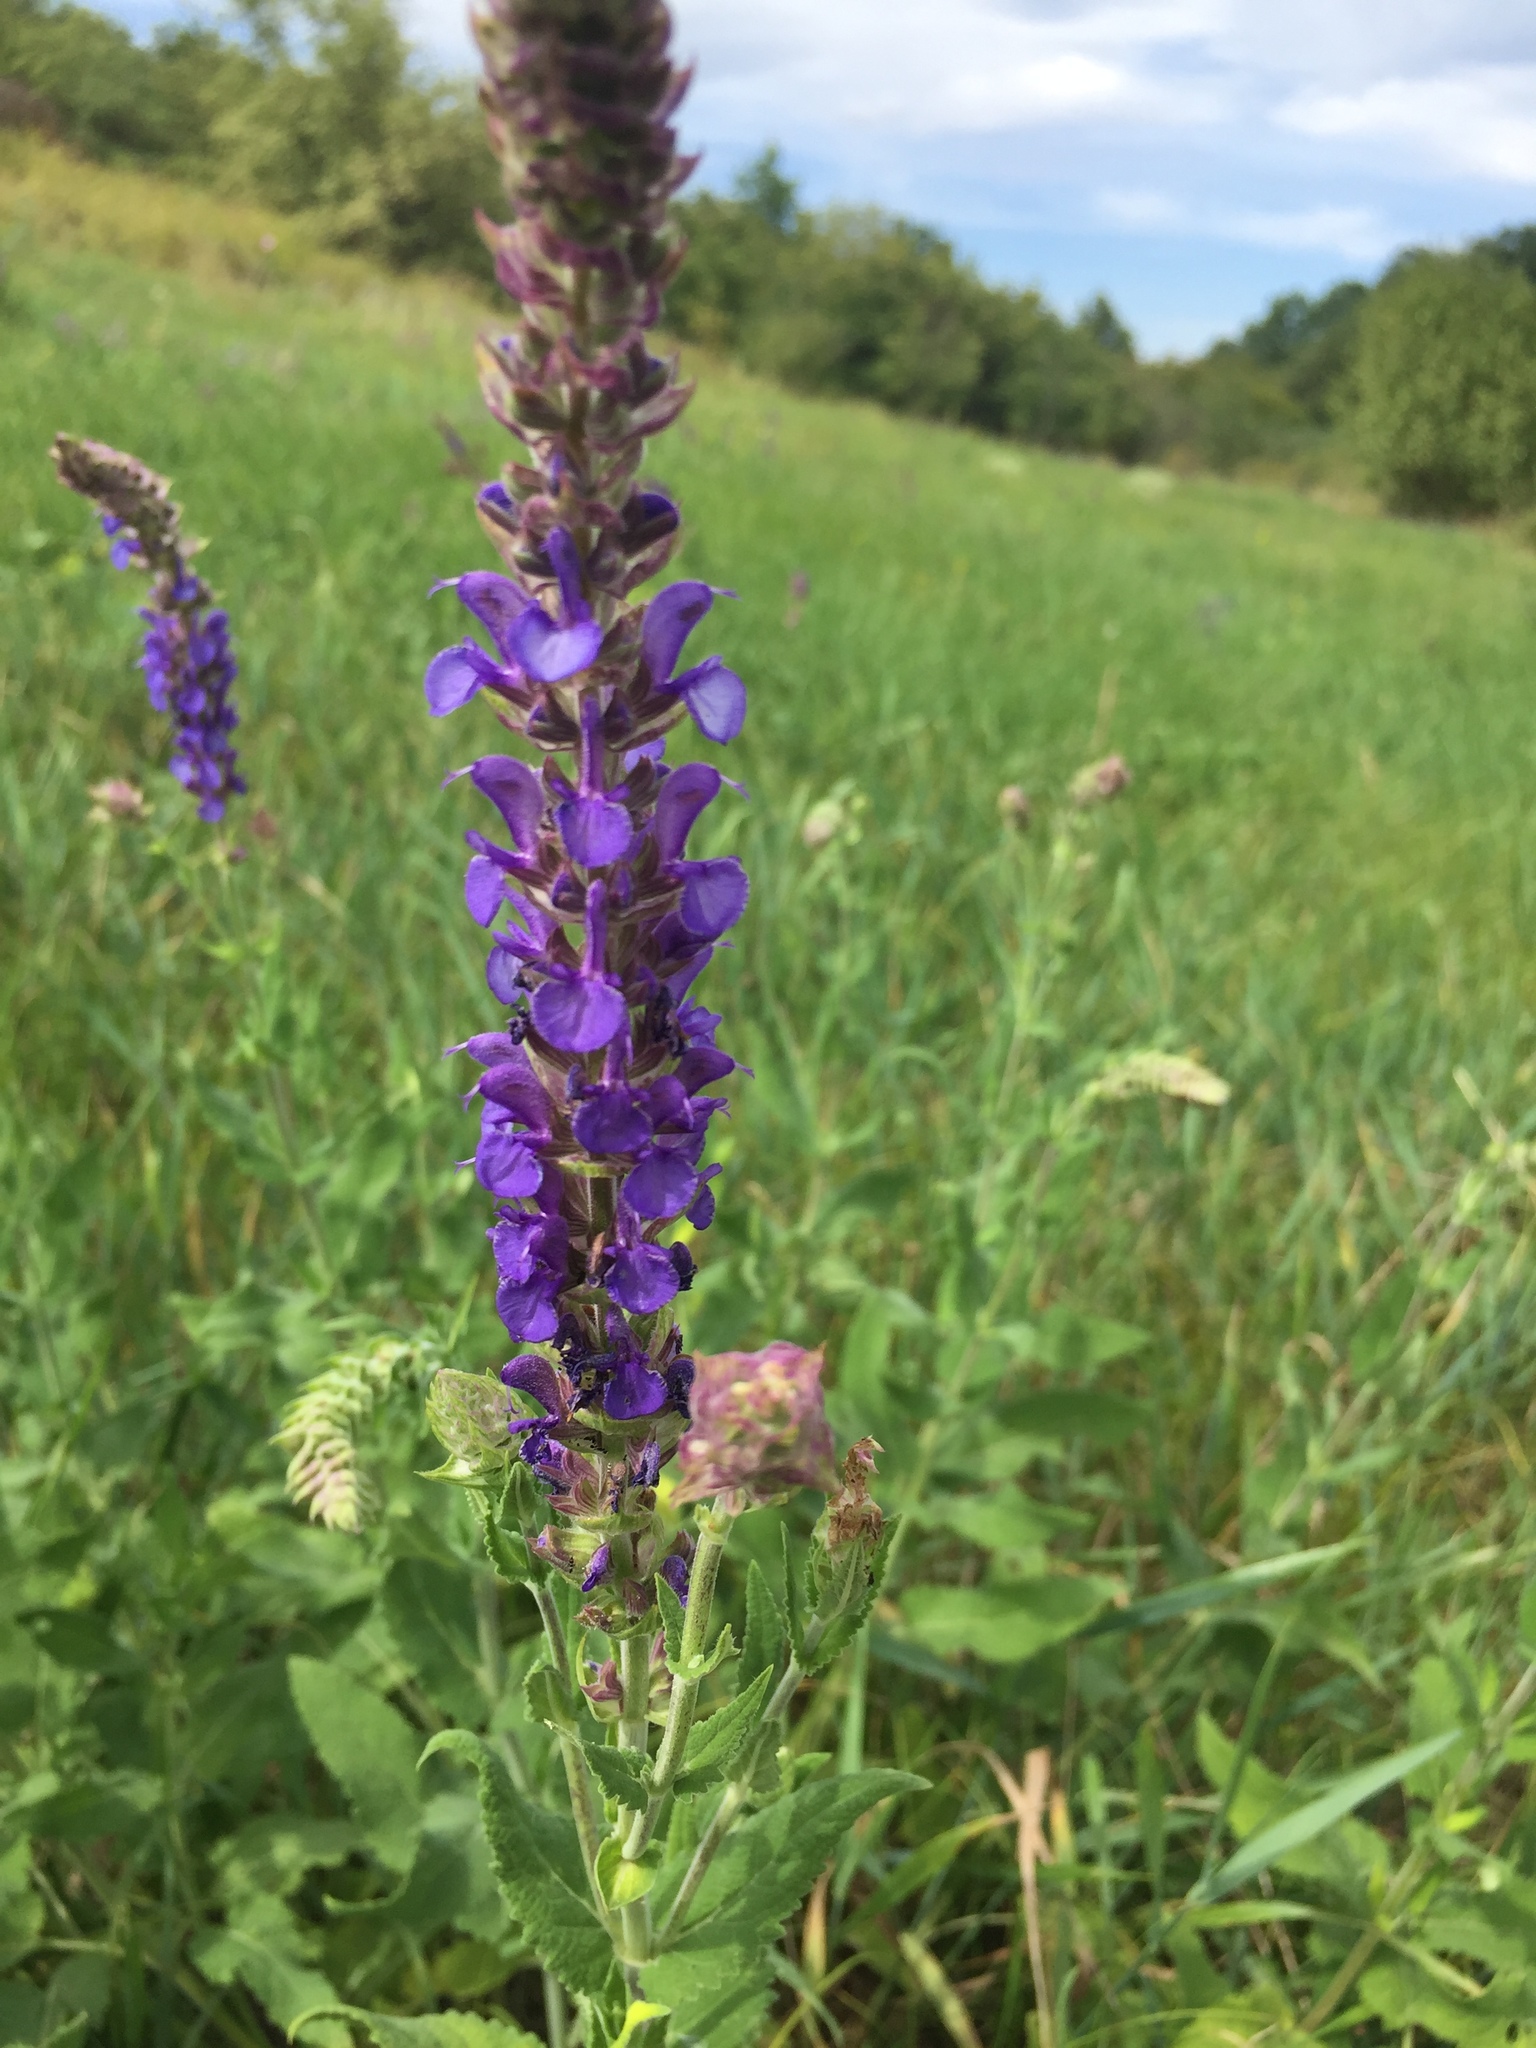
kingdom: Plantae
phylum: Tracheophyta
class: Magnoliopsida
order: Lamiales
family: Lamiaceae
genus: Salvia
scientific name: Salvia nemorosa
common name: Balkan clary
